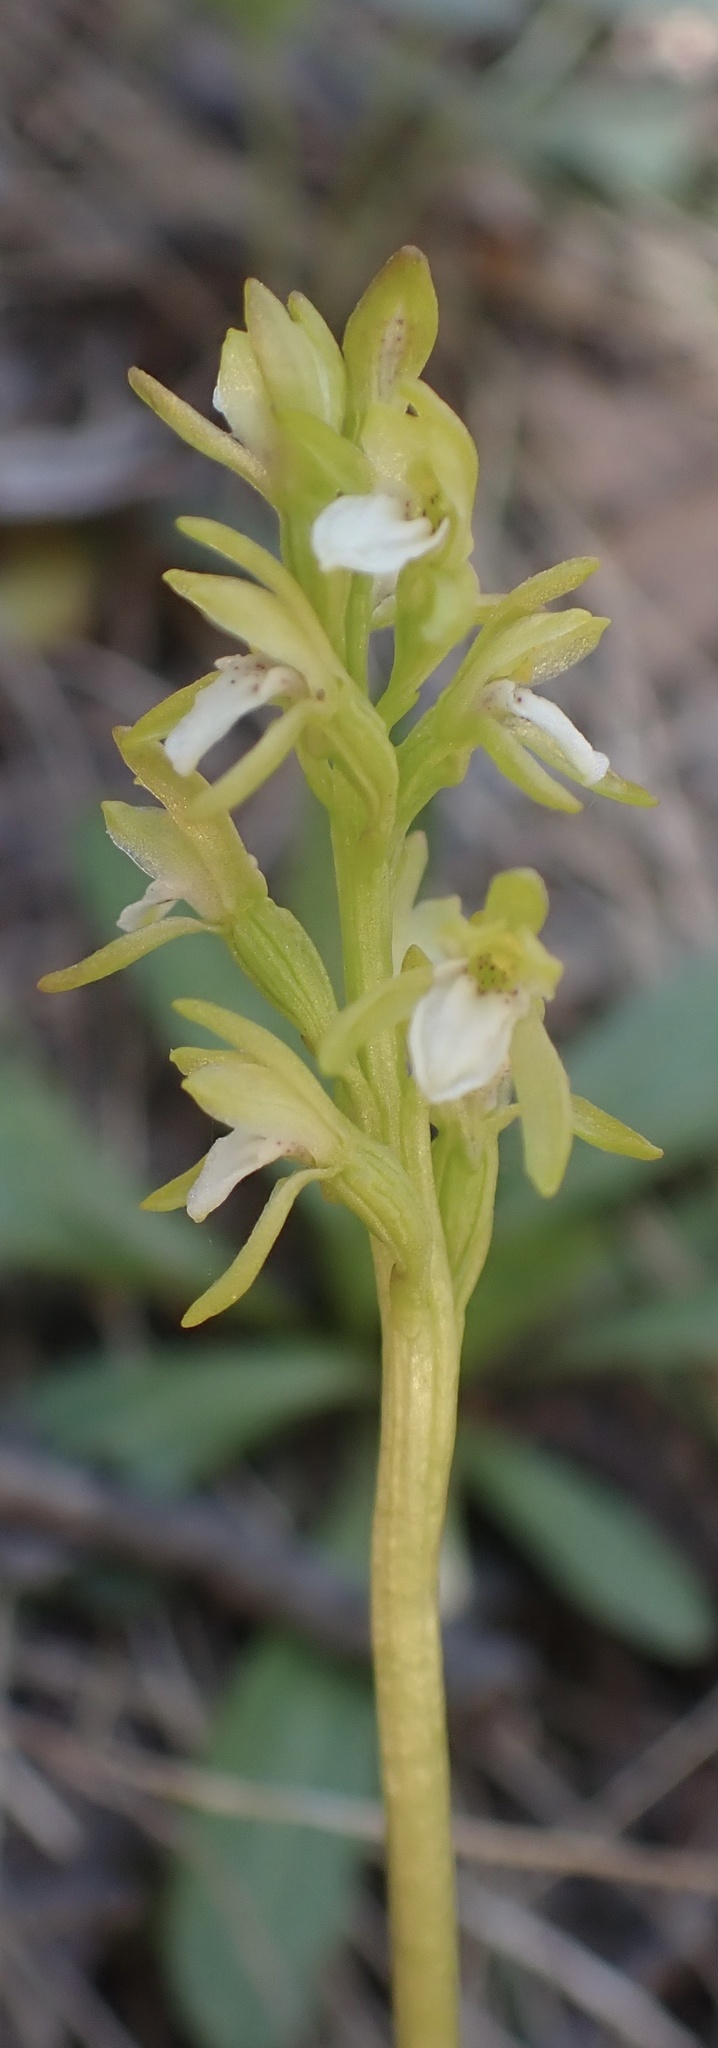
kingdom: Plantae
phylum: Tracheophyta
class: Liliopsida
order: Asparagales
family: Orchidaceae
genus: Corallorhiza
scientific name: Corallorhiza trifida
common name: Yellow coralroot
